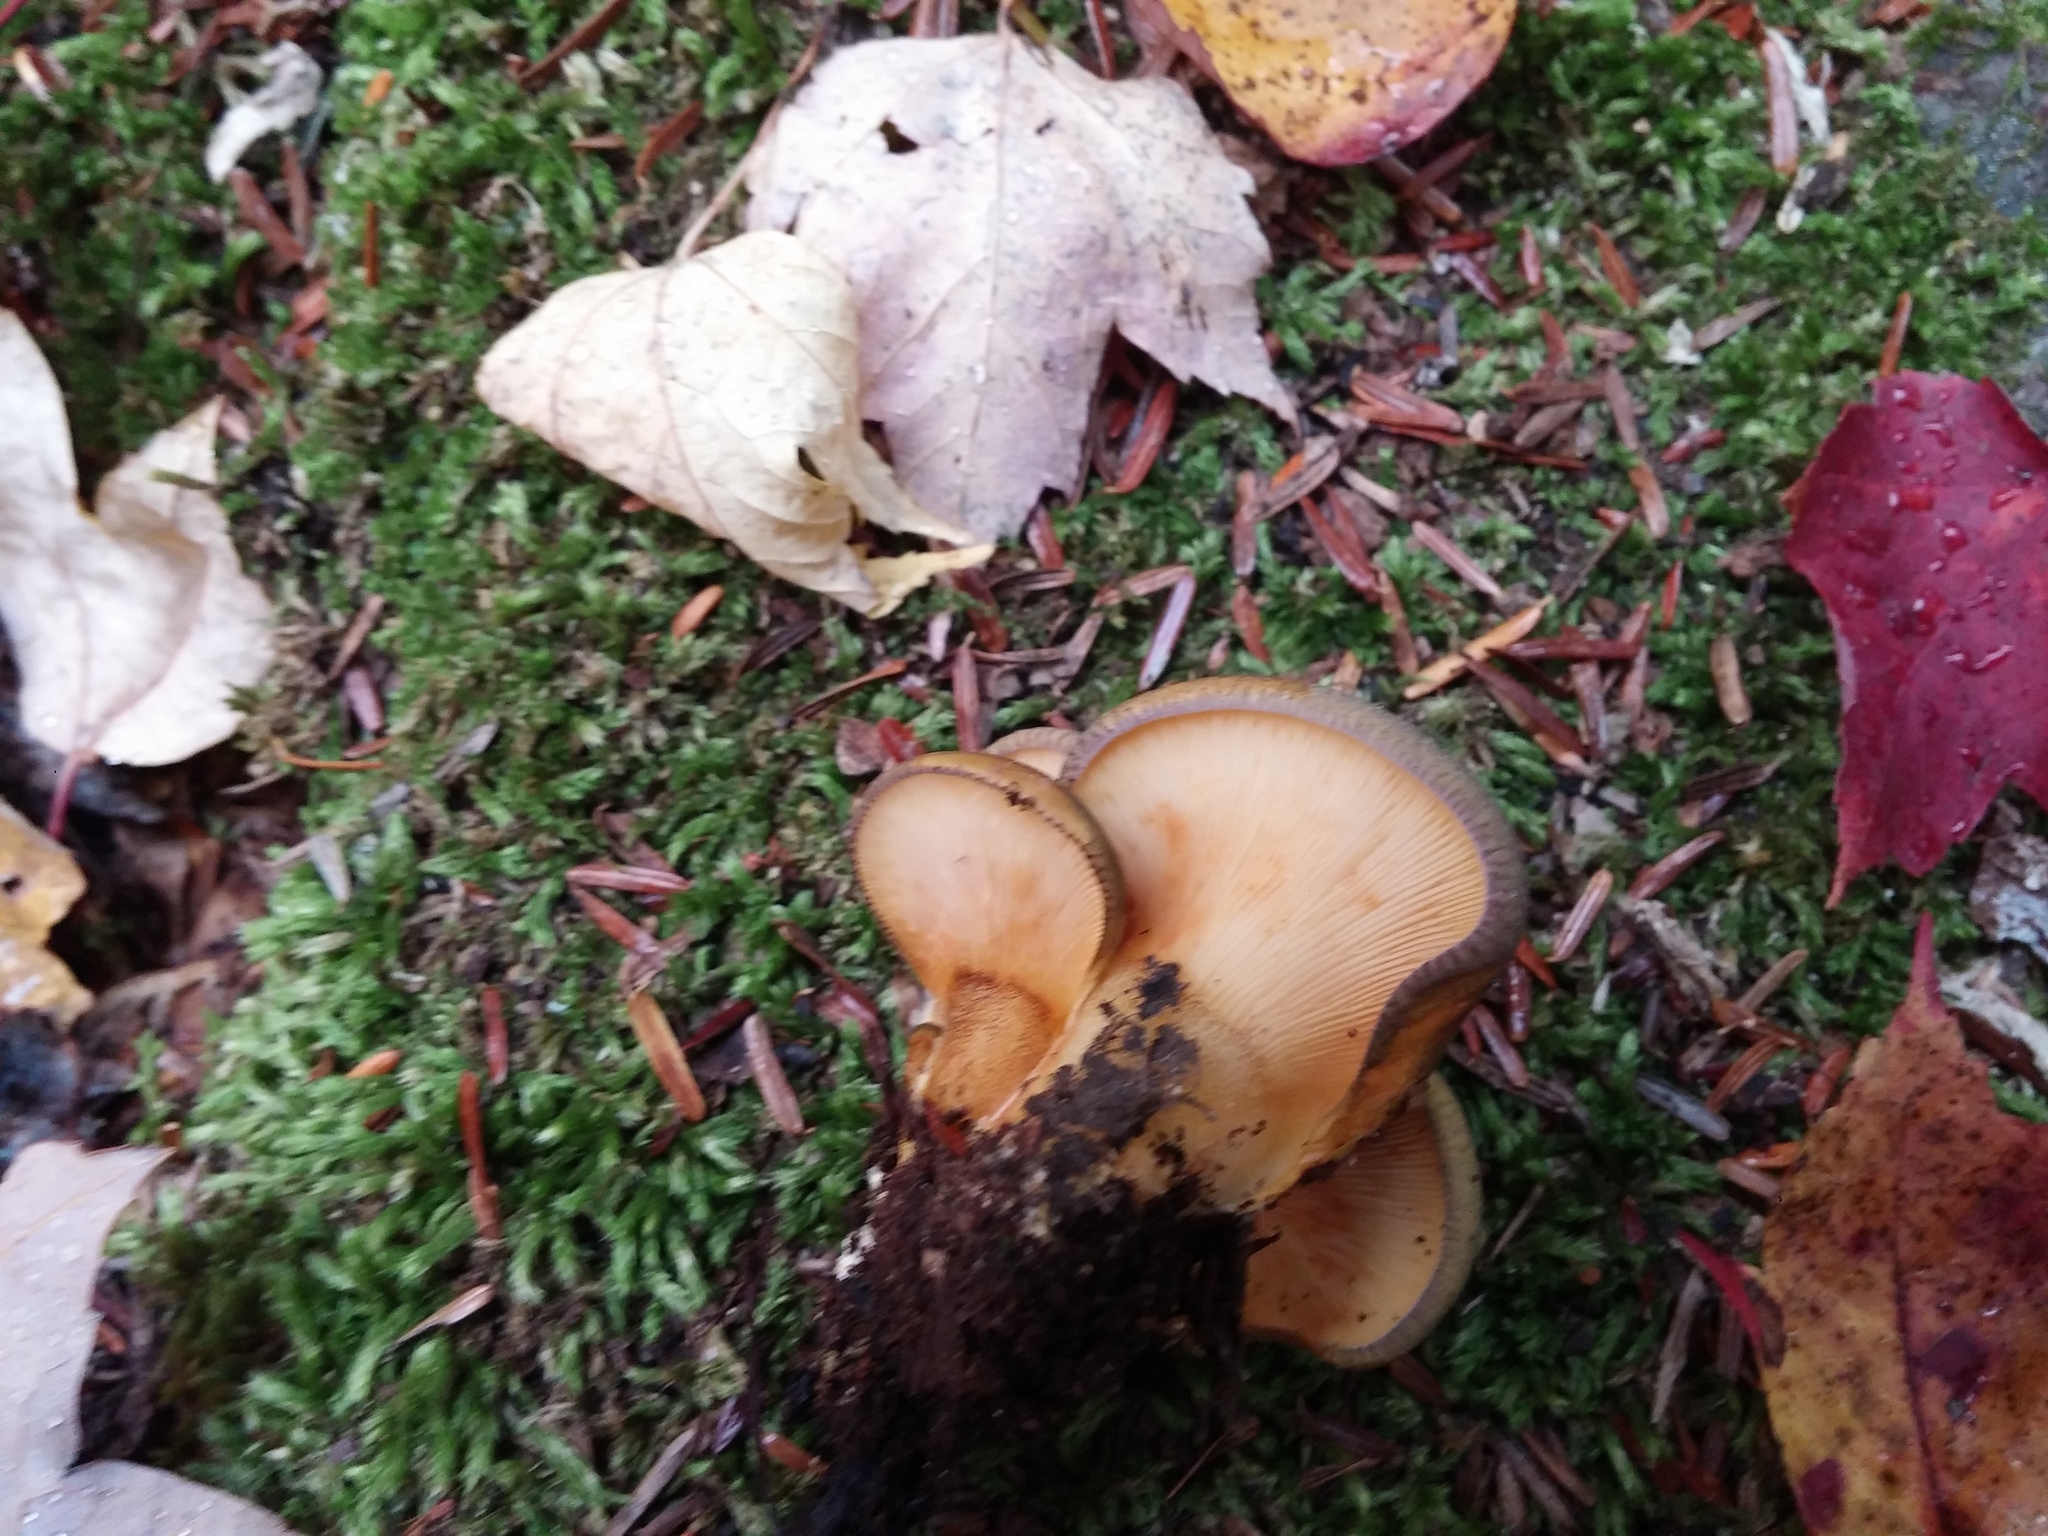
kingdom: Fungi
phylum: Basidiomycota
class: Agaricomycetes
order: Agaricales
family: Sarcomyxaceae
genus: Sarcomyxa
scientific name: Sarcomyxa serotina
